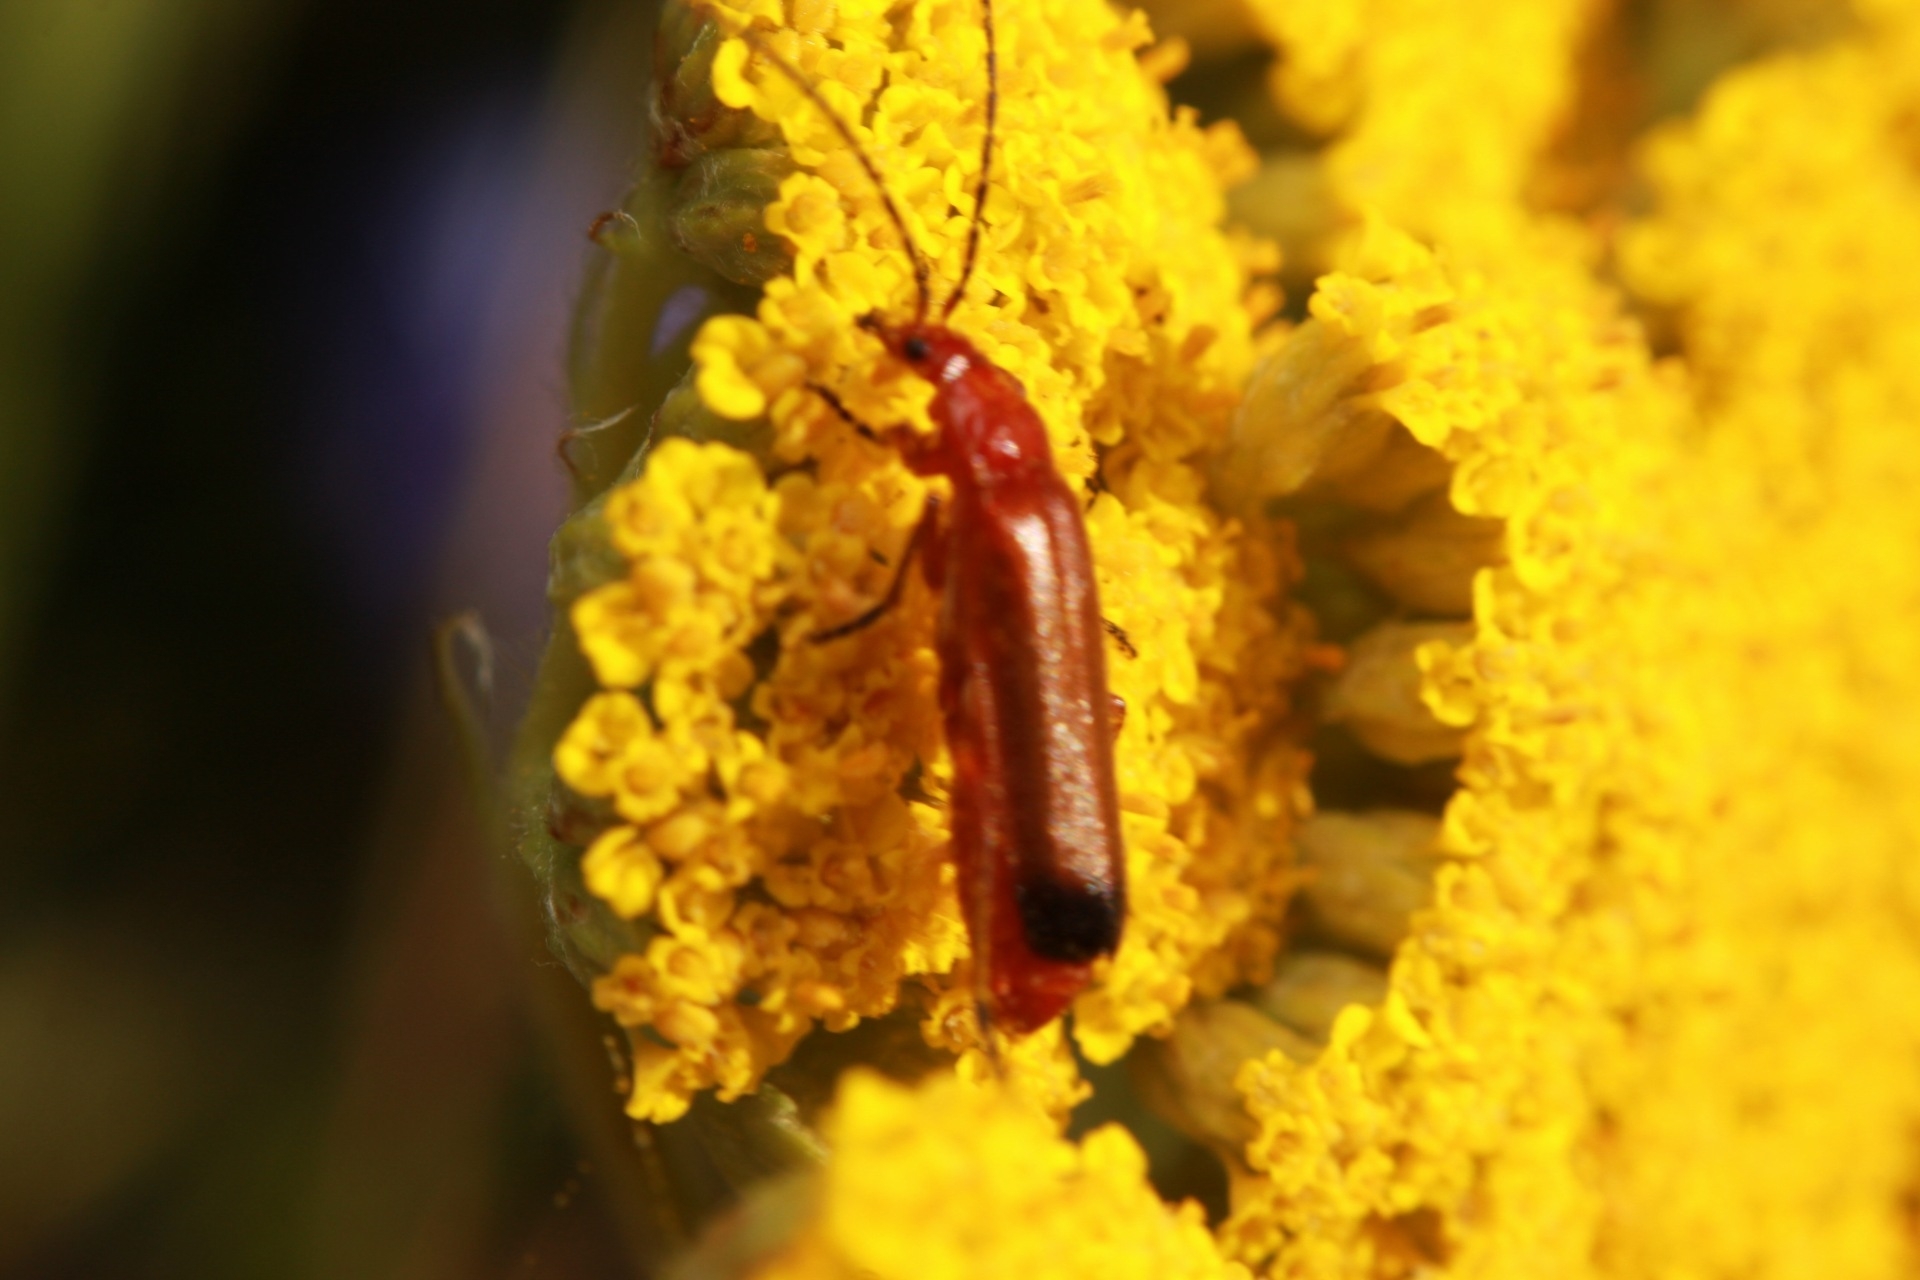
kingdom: Animalia
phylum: Arthropoda
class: Insecta
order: Coleoptera
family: Cantharidae
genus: Rhagonycha
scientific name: Rhagonycha fulva
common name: Common red soldier beetle
